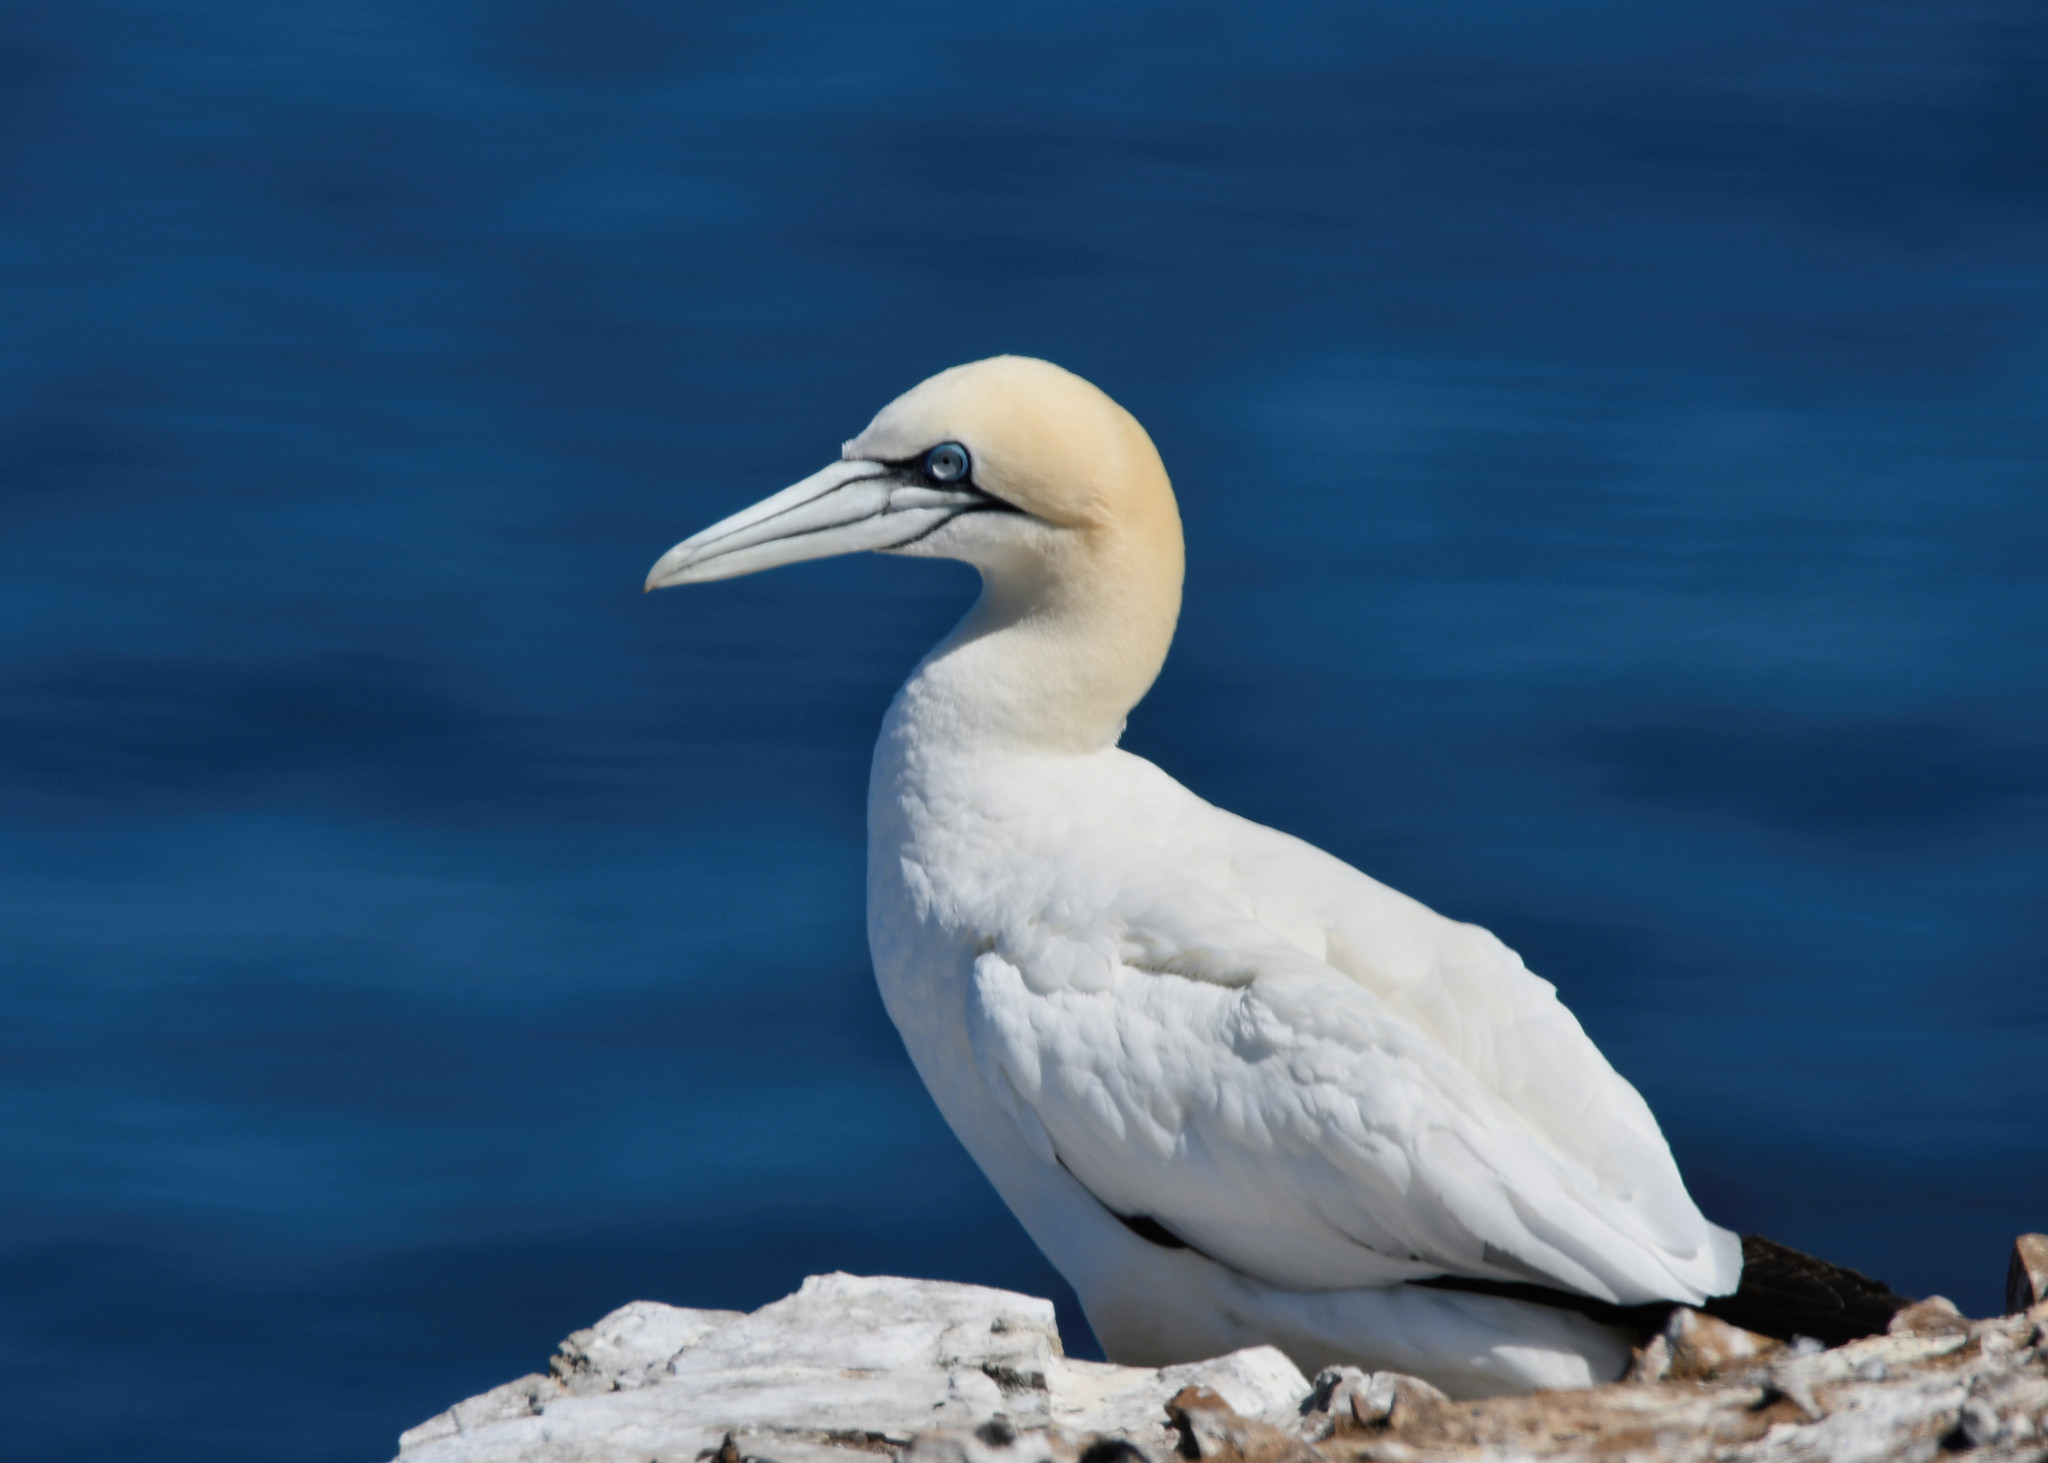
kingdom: Animalia
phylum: Chordata
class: Aves
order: Suliformes
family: Sulidae
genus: Morus
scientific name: Morus bassanus
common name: Northern gannet
